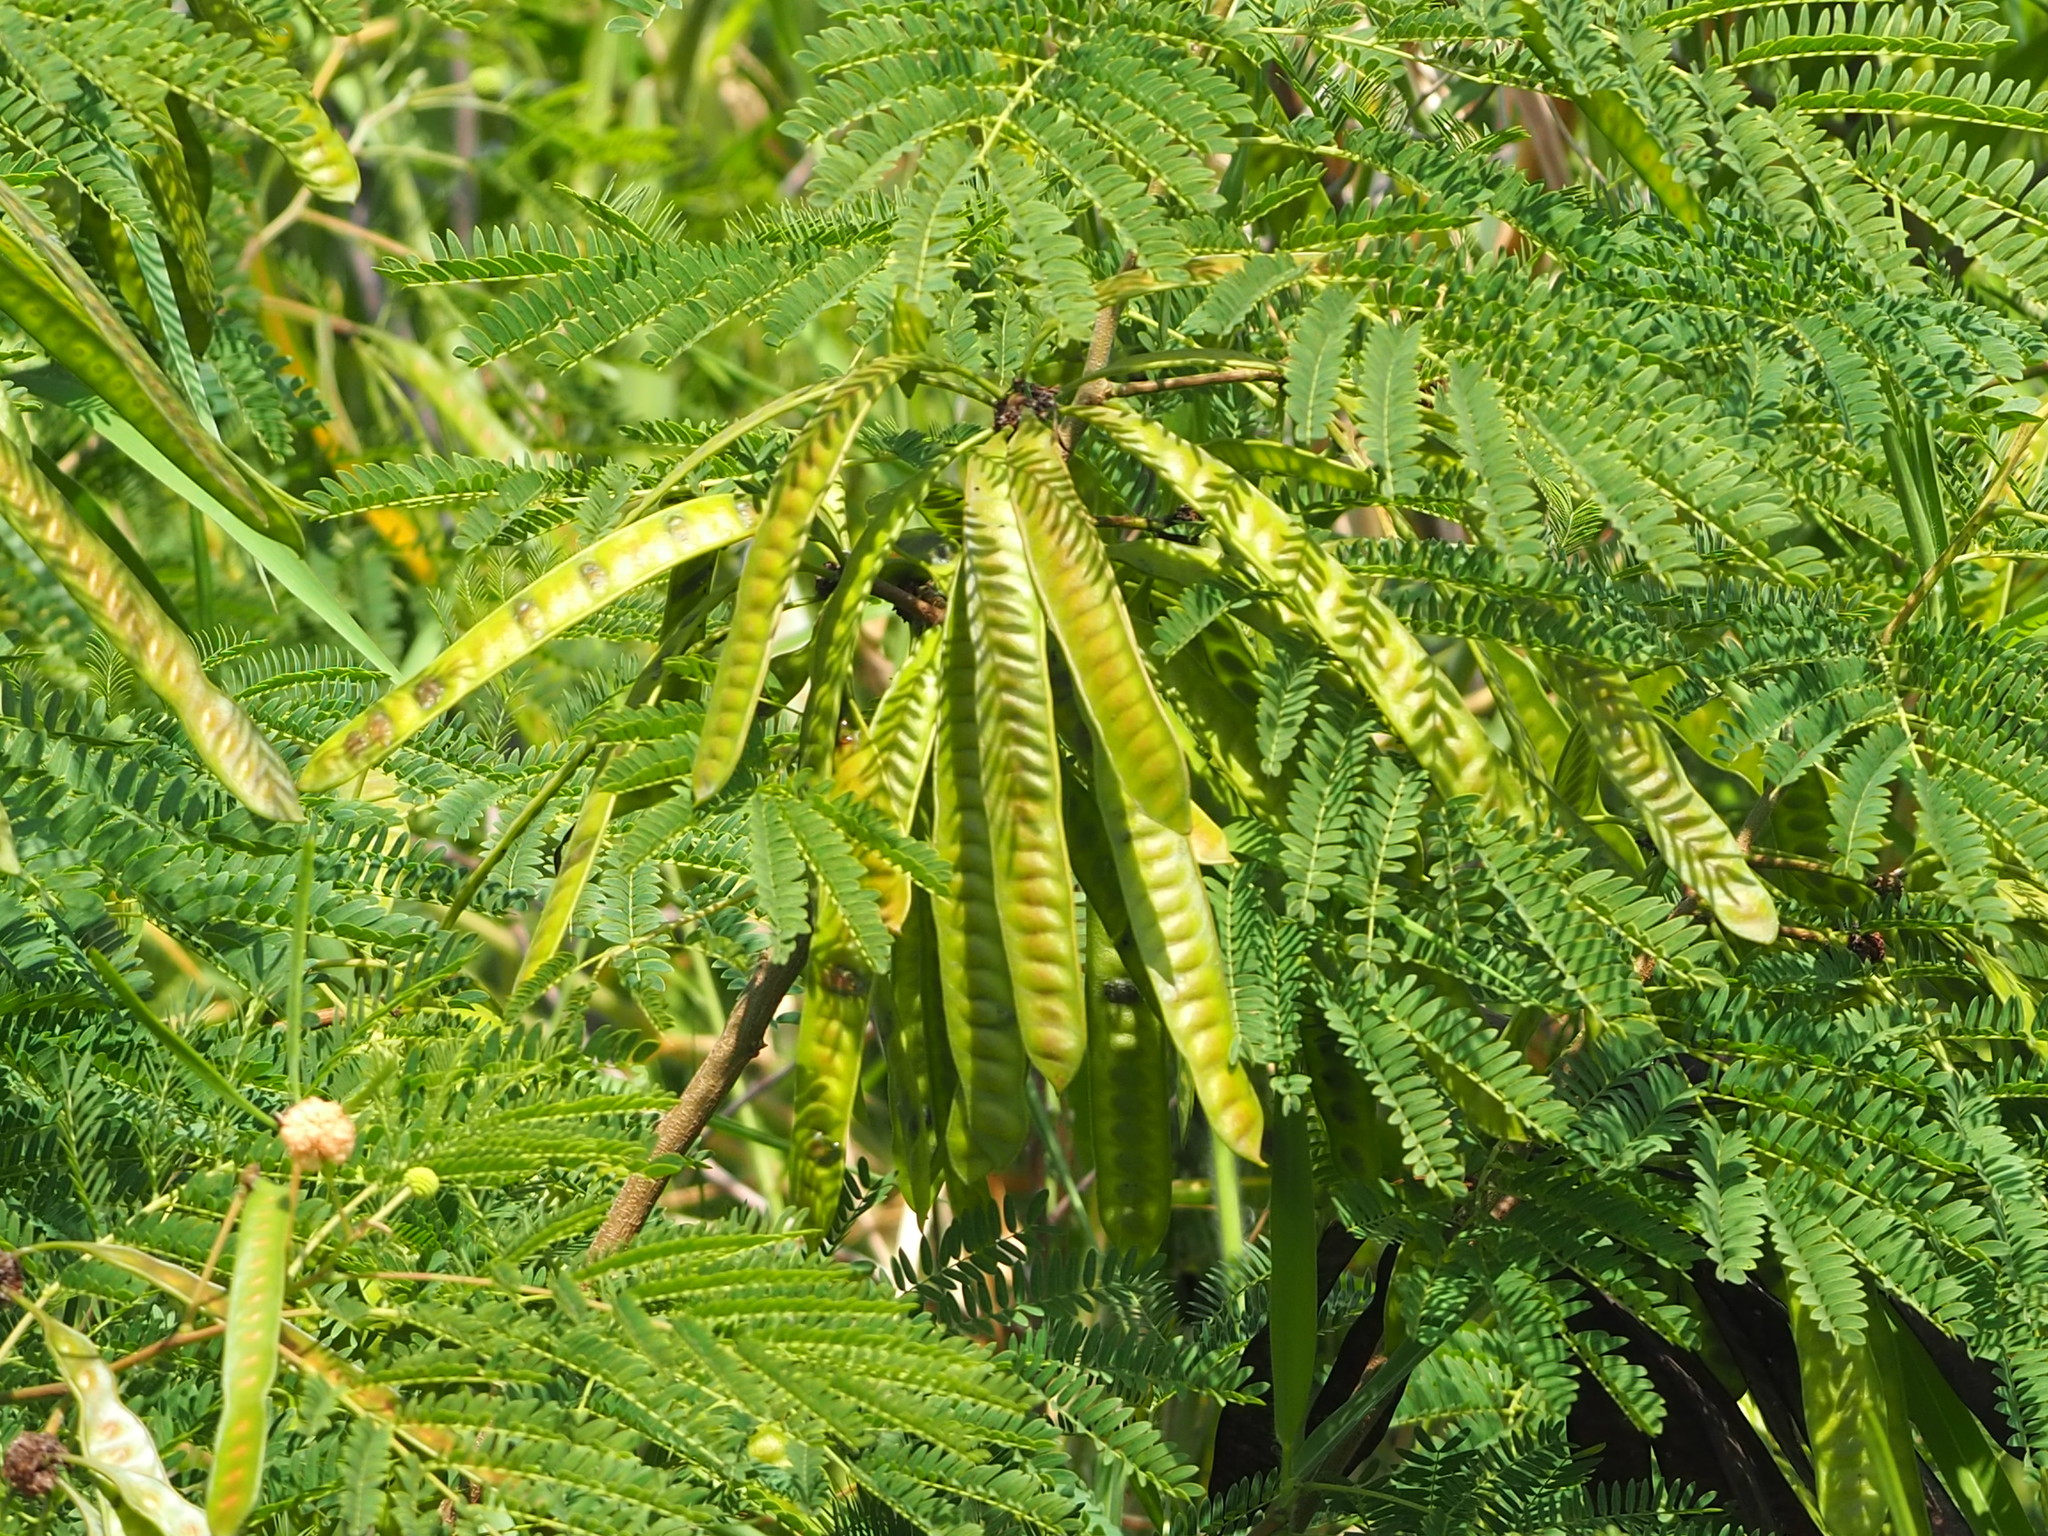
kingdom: Plantae
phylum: Tracheophyta
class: Magnoliopsida
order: Fabales
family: Fabaceae
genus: Leucaena
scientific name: Leucaena leucocephala
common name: White leadtree
